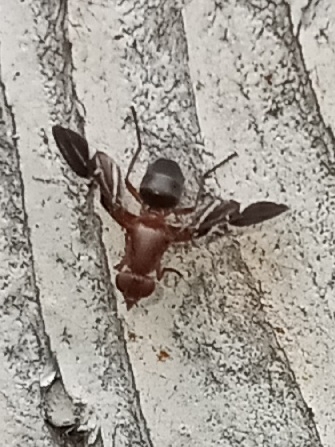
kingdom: Animalia
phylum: Arthropoda
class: Insecta
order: Diptera
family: Ulidiidae
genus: Delphinia
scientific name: Delphinia picta
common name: Common picture-winged fly
